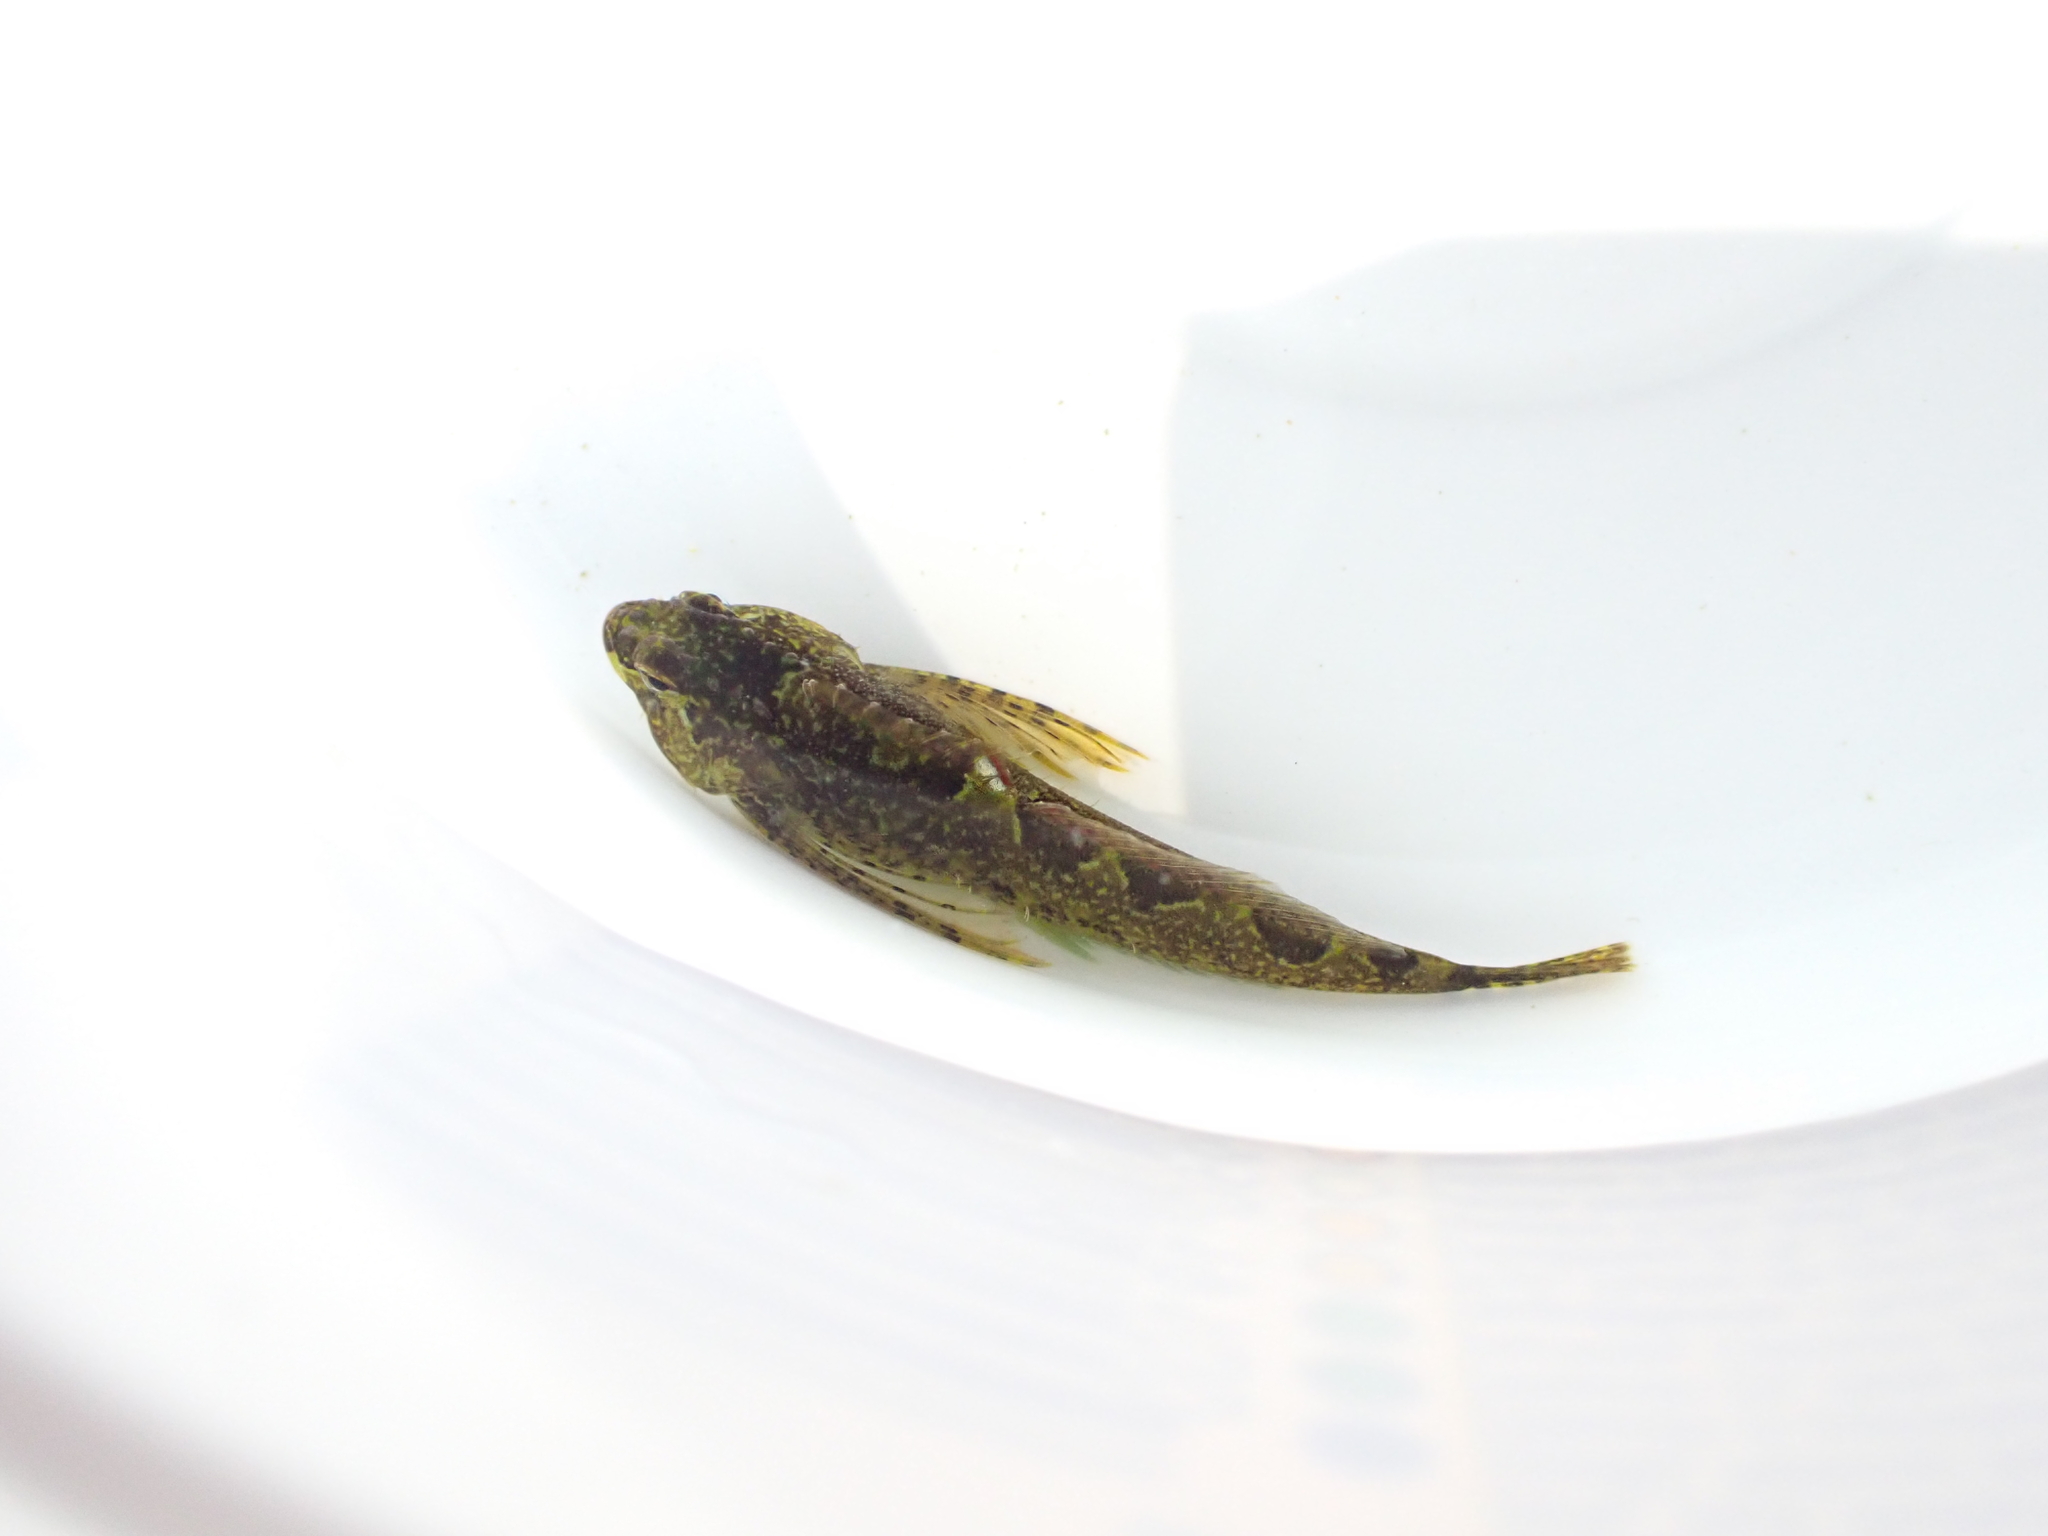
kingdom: Animalia
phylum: Chordata
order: Scorpaeniformes
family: Cottidae
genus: Oligocottus
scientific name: Oligocottus rimensis
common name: Saddleback sculpin
